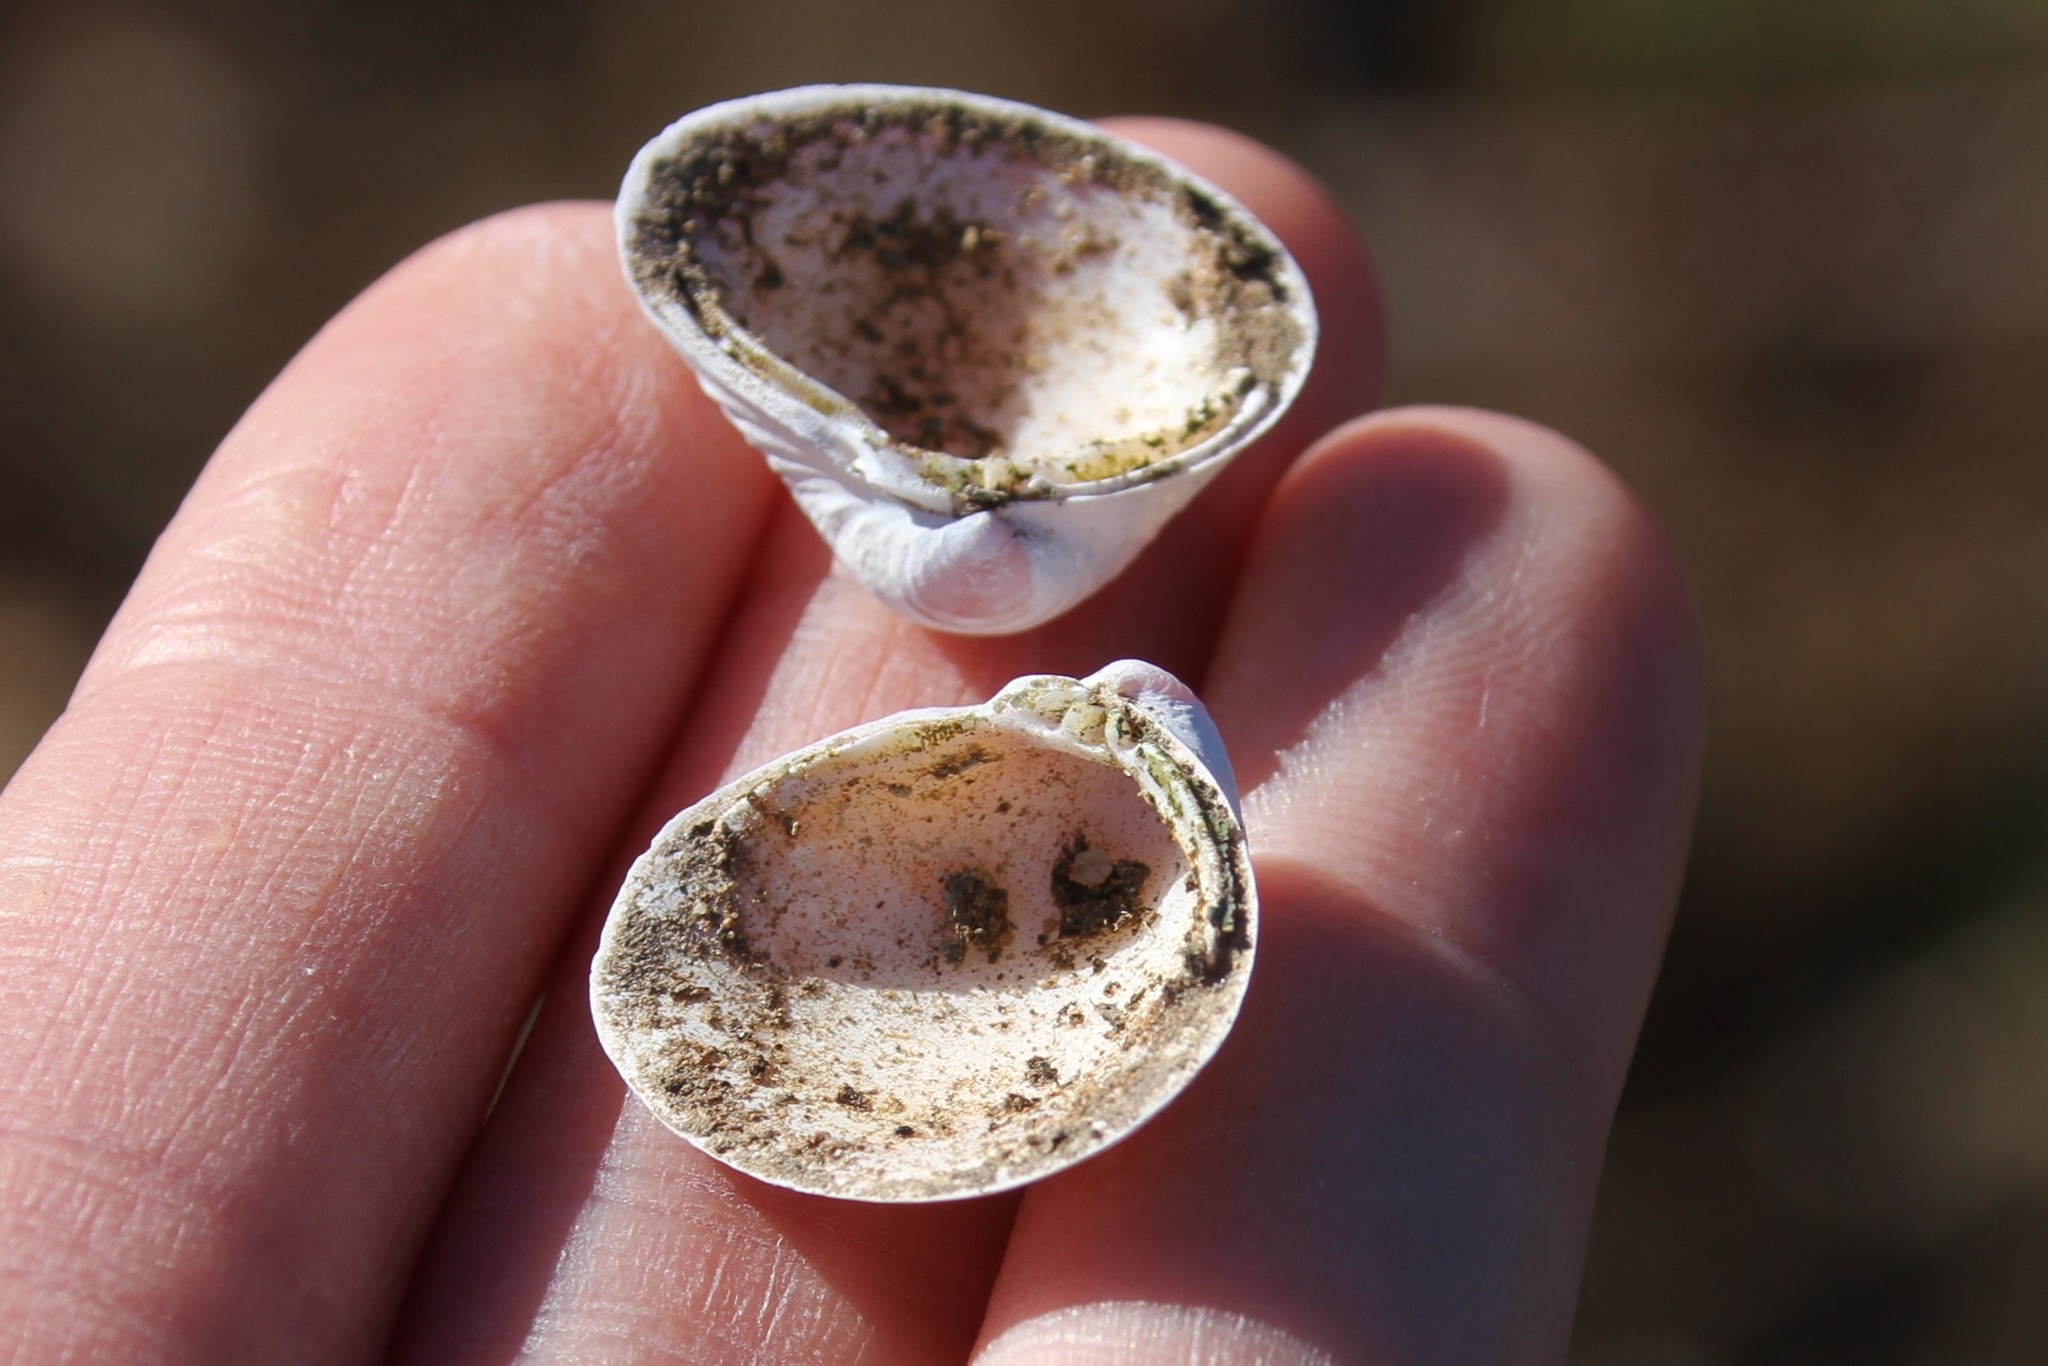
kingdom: Animalia
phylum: Mollusca
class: Bivalvia
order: Venerida
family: Cyrenidae
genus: Corbicula
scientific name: Corbicula fluminea
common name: Asian clam
